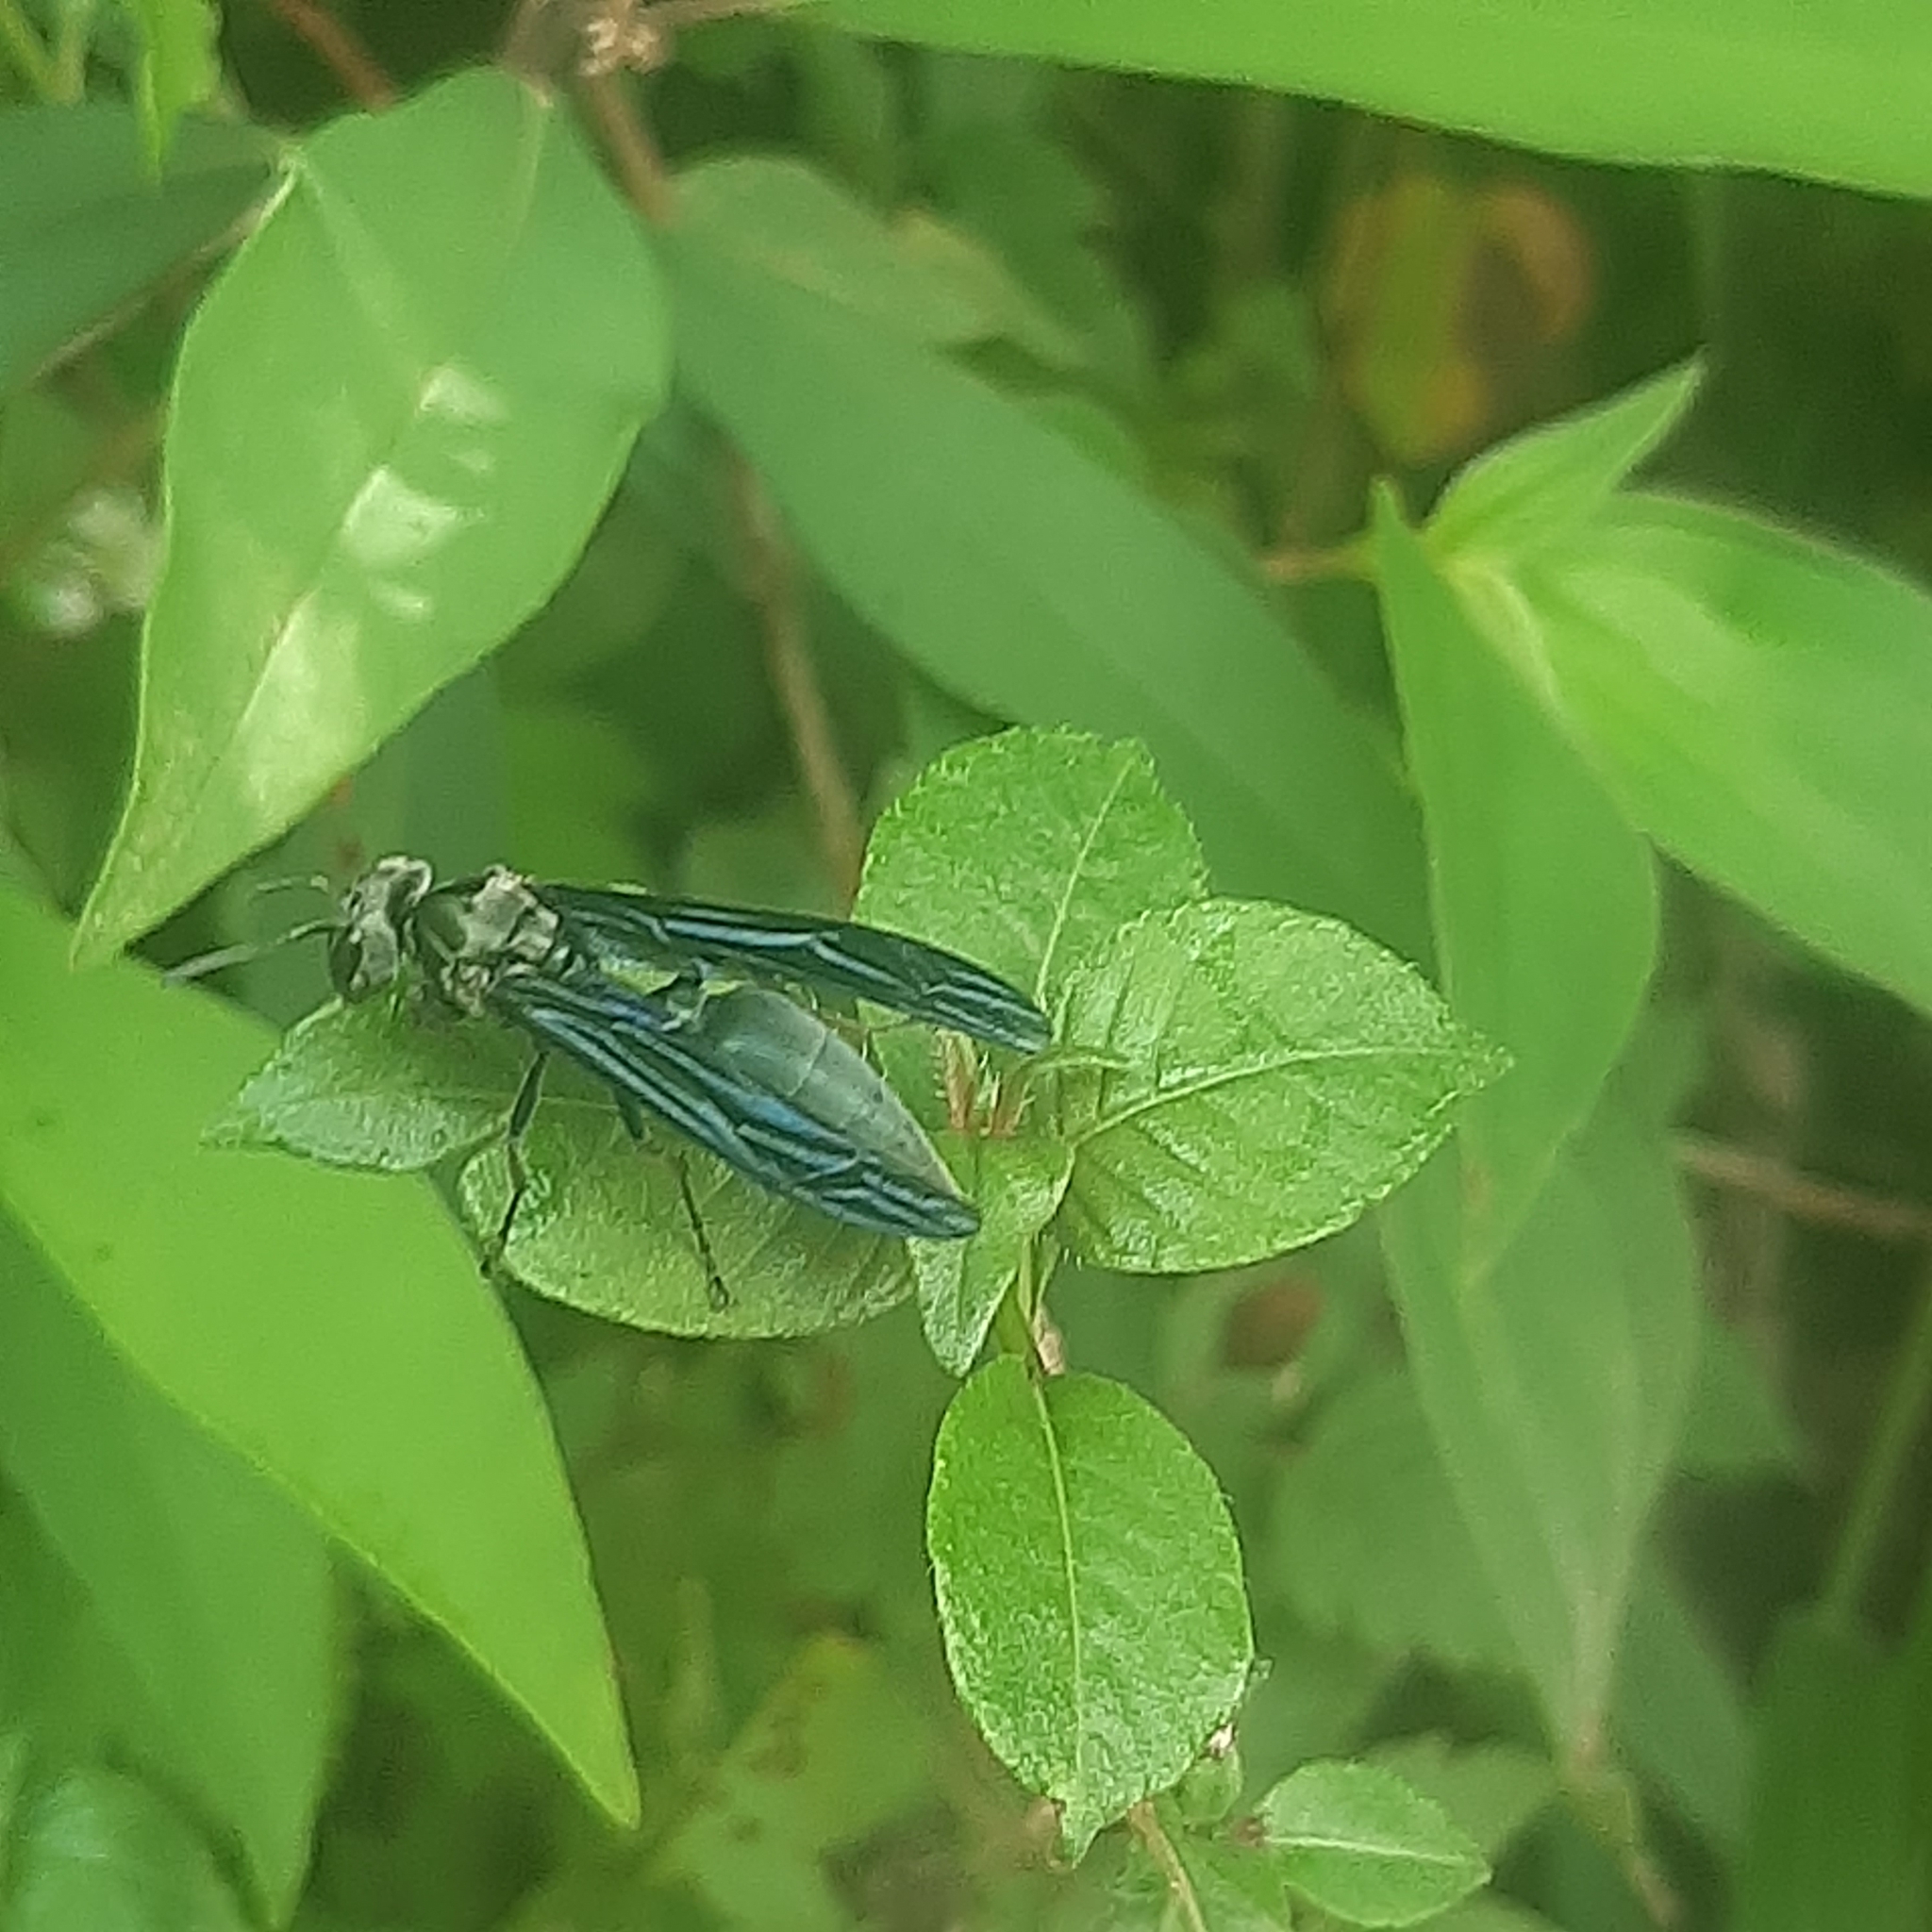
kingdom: Animalia
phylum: Arthropoda
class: Insecta
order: Hymenoptera
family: Vespidae
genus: Synoeca
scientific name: Synoeca septentrionalis
